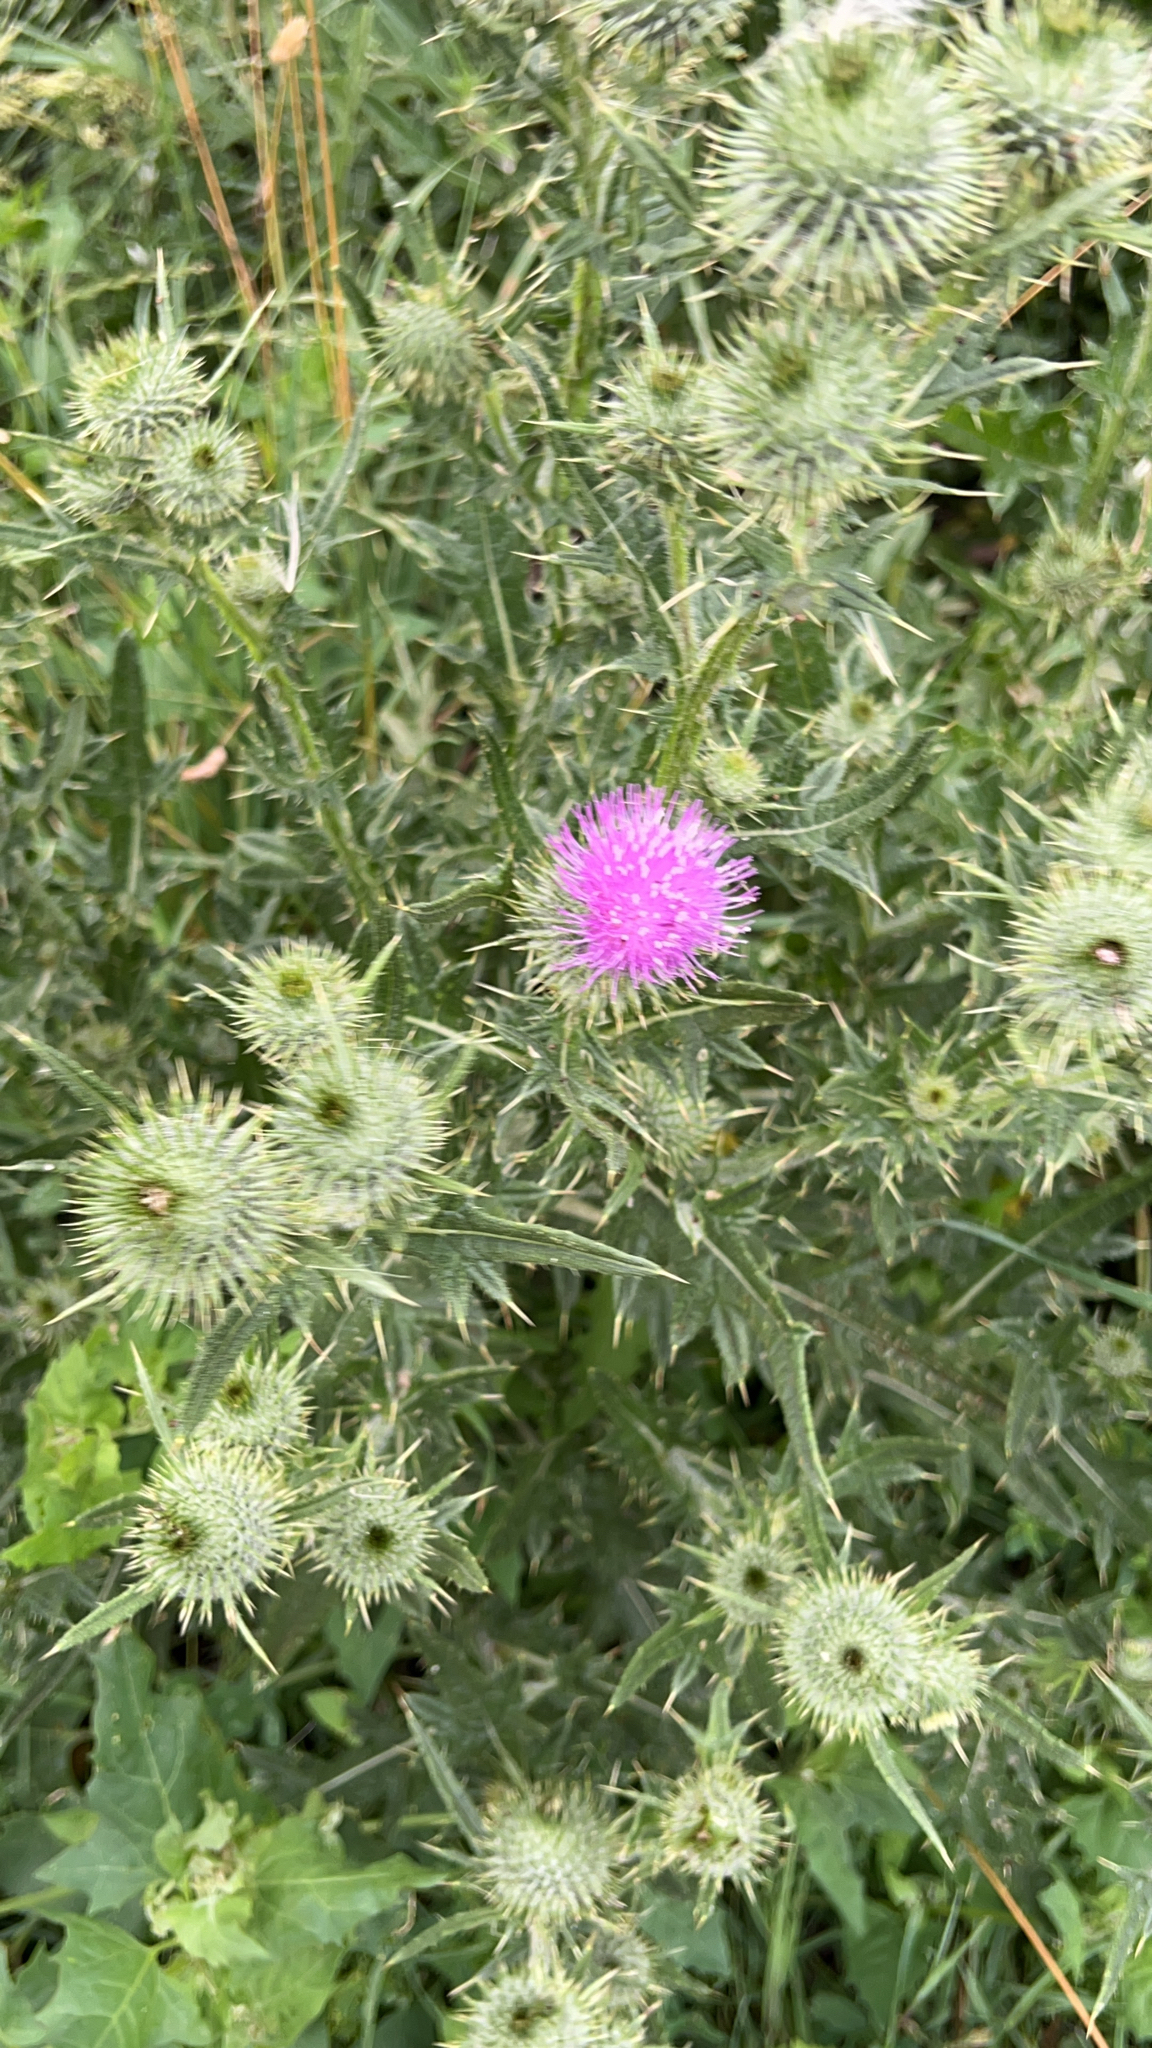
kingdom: Plantae
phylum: Tracheophyta
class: Magnoliopsida
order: Asterales
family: Asteraceae
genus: Cirsium
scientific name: Cirsium vulgare
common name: Bull thistle
